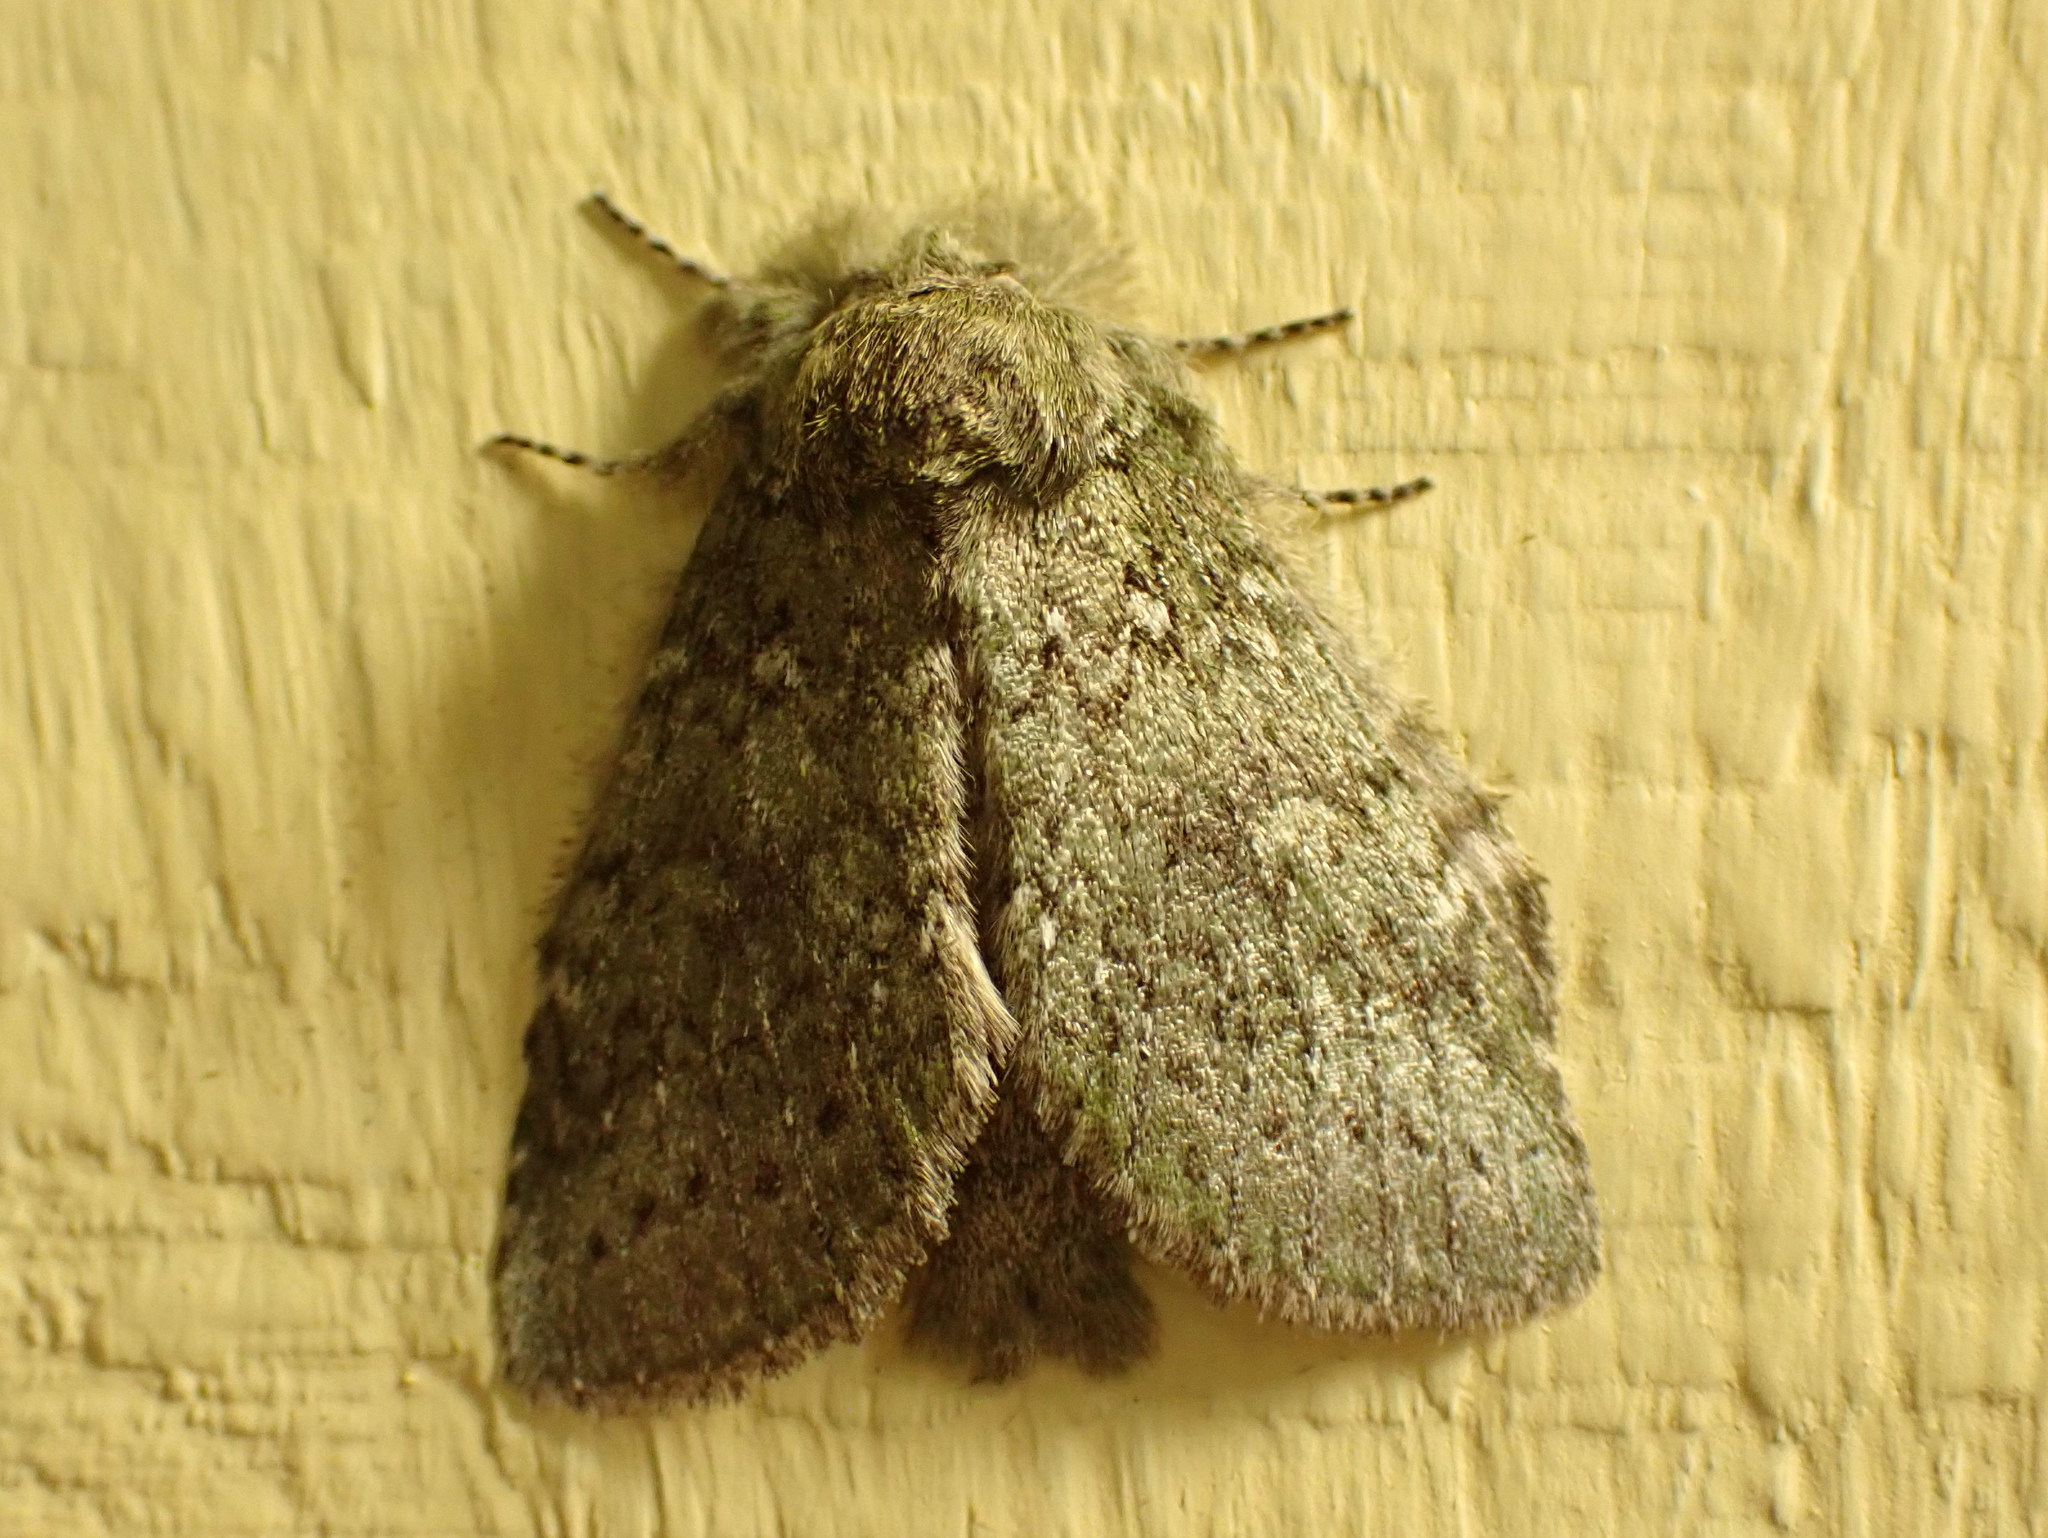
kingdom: Animalia
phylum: Arthropoda
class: Insecta
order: Lepidoptera
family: Notodontidae
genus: Disphragis
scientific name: Disphragis Cecrita guttivitta
